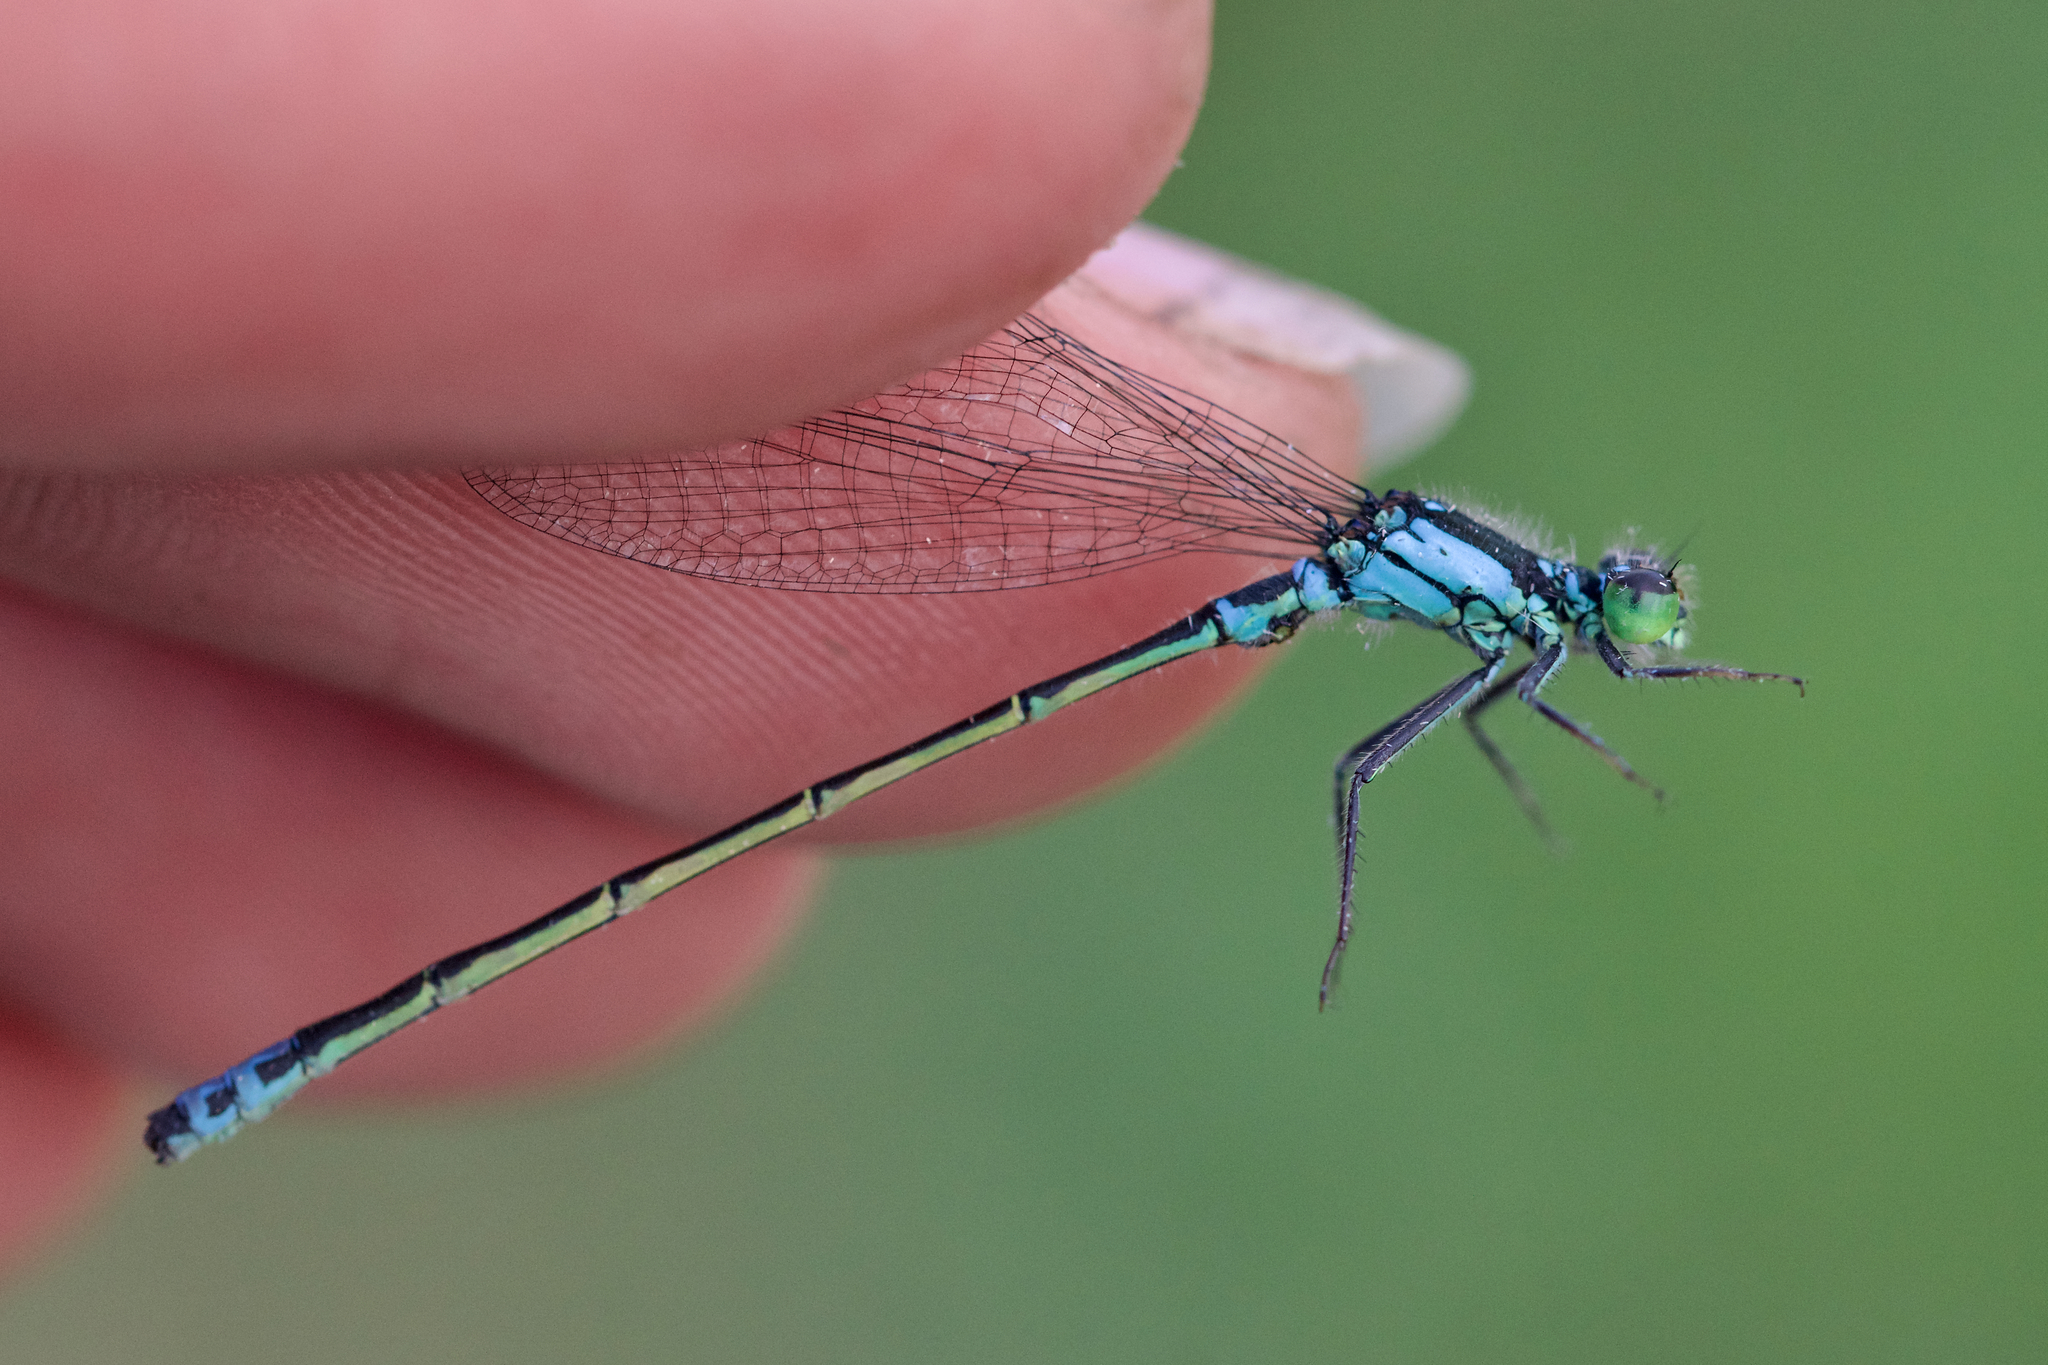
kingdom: Animalia
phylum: Arthropoda
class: Insecta
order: Odonata
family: Coenagrionidae
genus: Ischnura
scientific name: Ischnura damula
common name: Plains forktail
